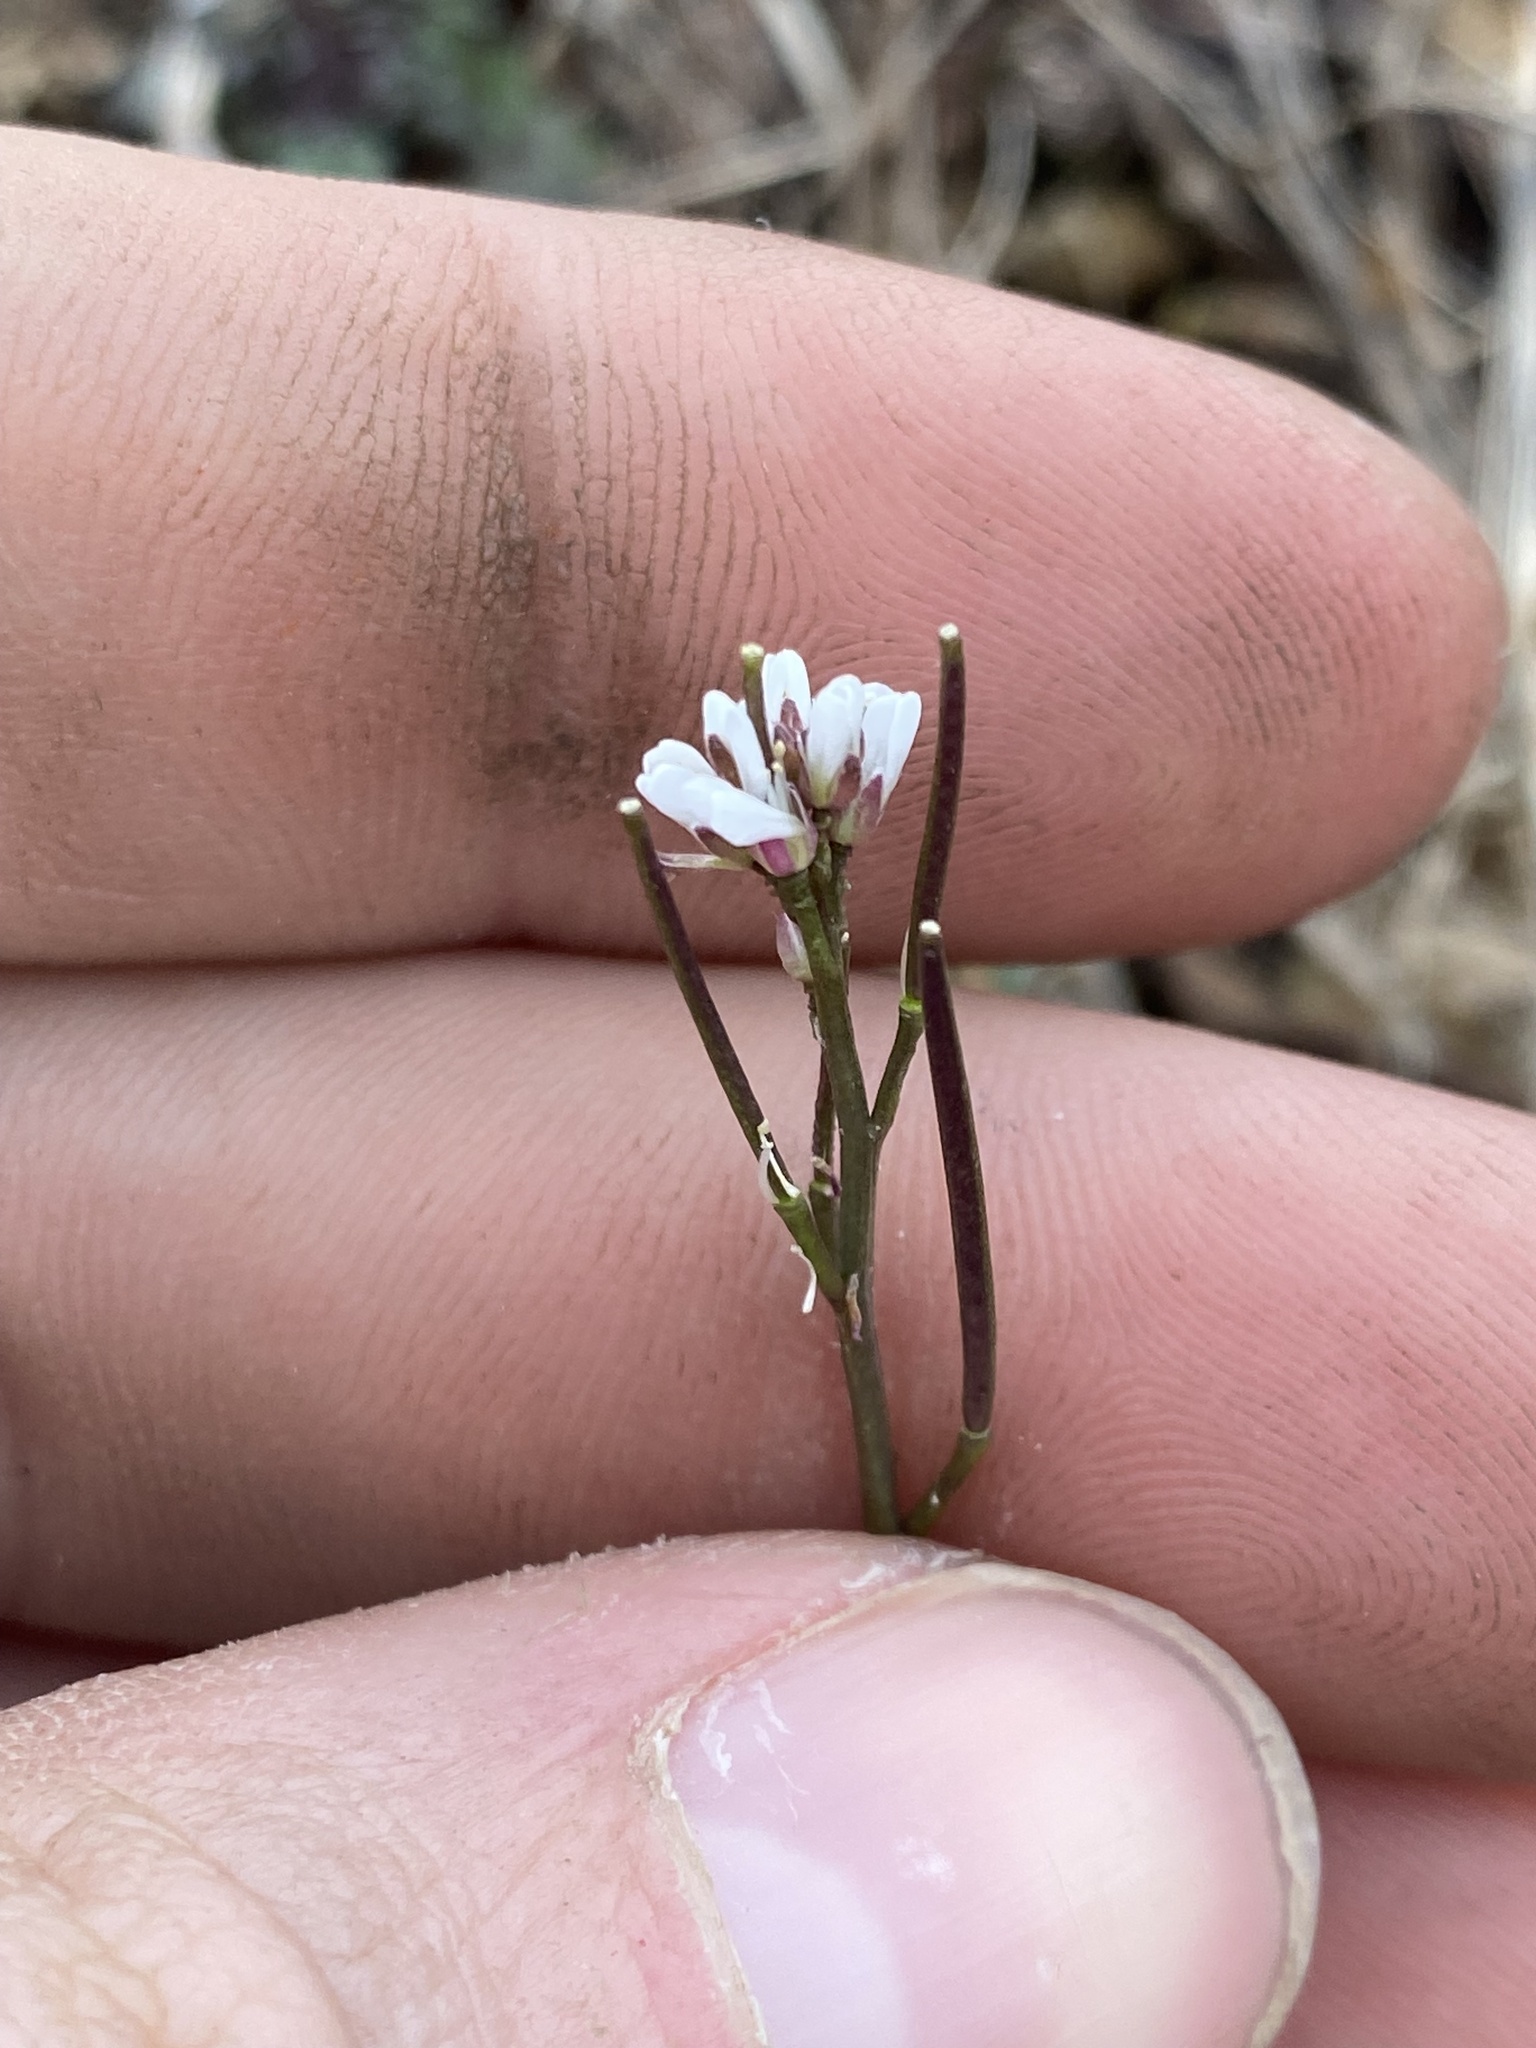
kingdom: Plantae
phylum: Tracheophyta
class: Magnoliopsida
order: Brassicales
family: Brassicaceae
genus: Cardamine
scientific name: Cardamine hirsuta
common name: Hairy bittercress
